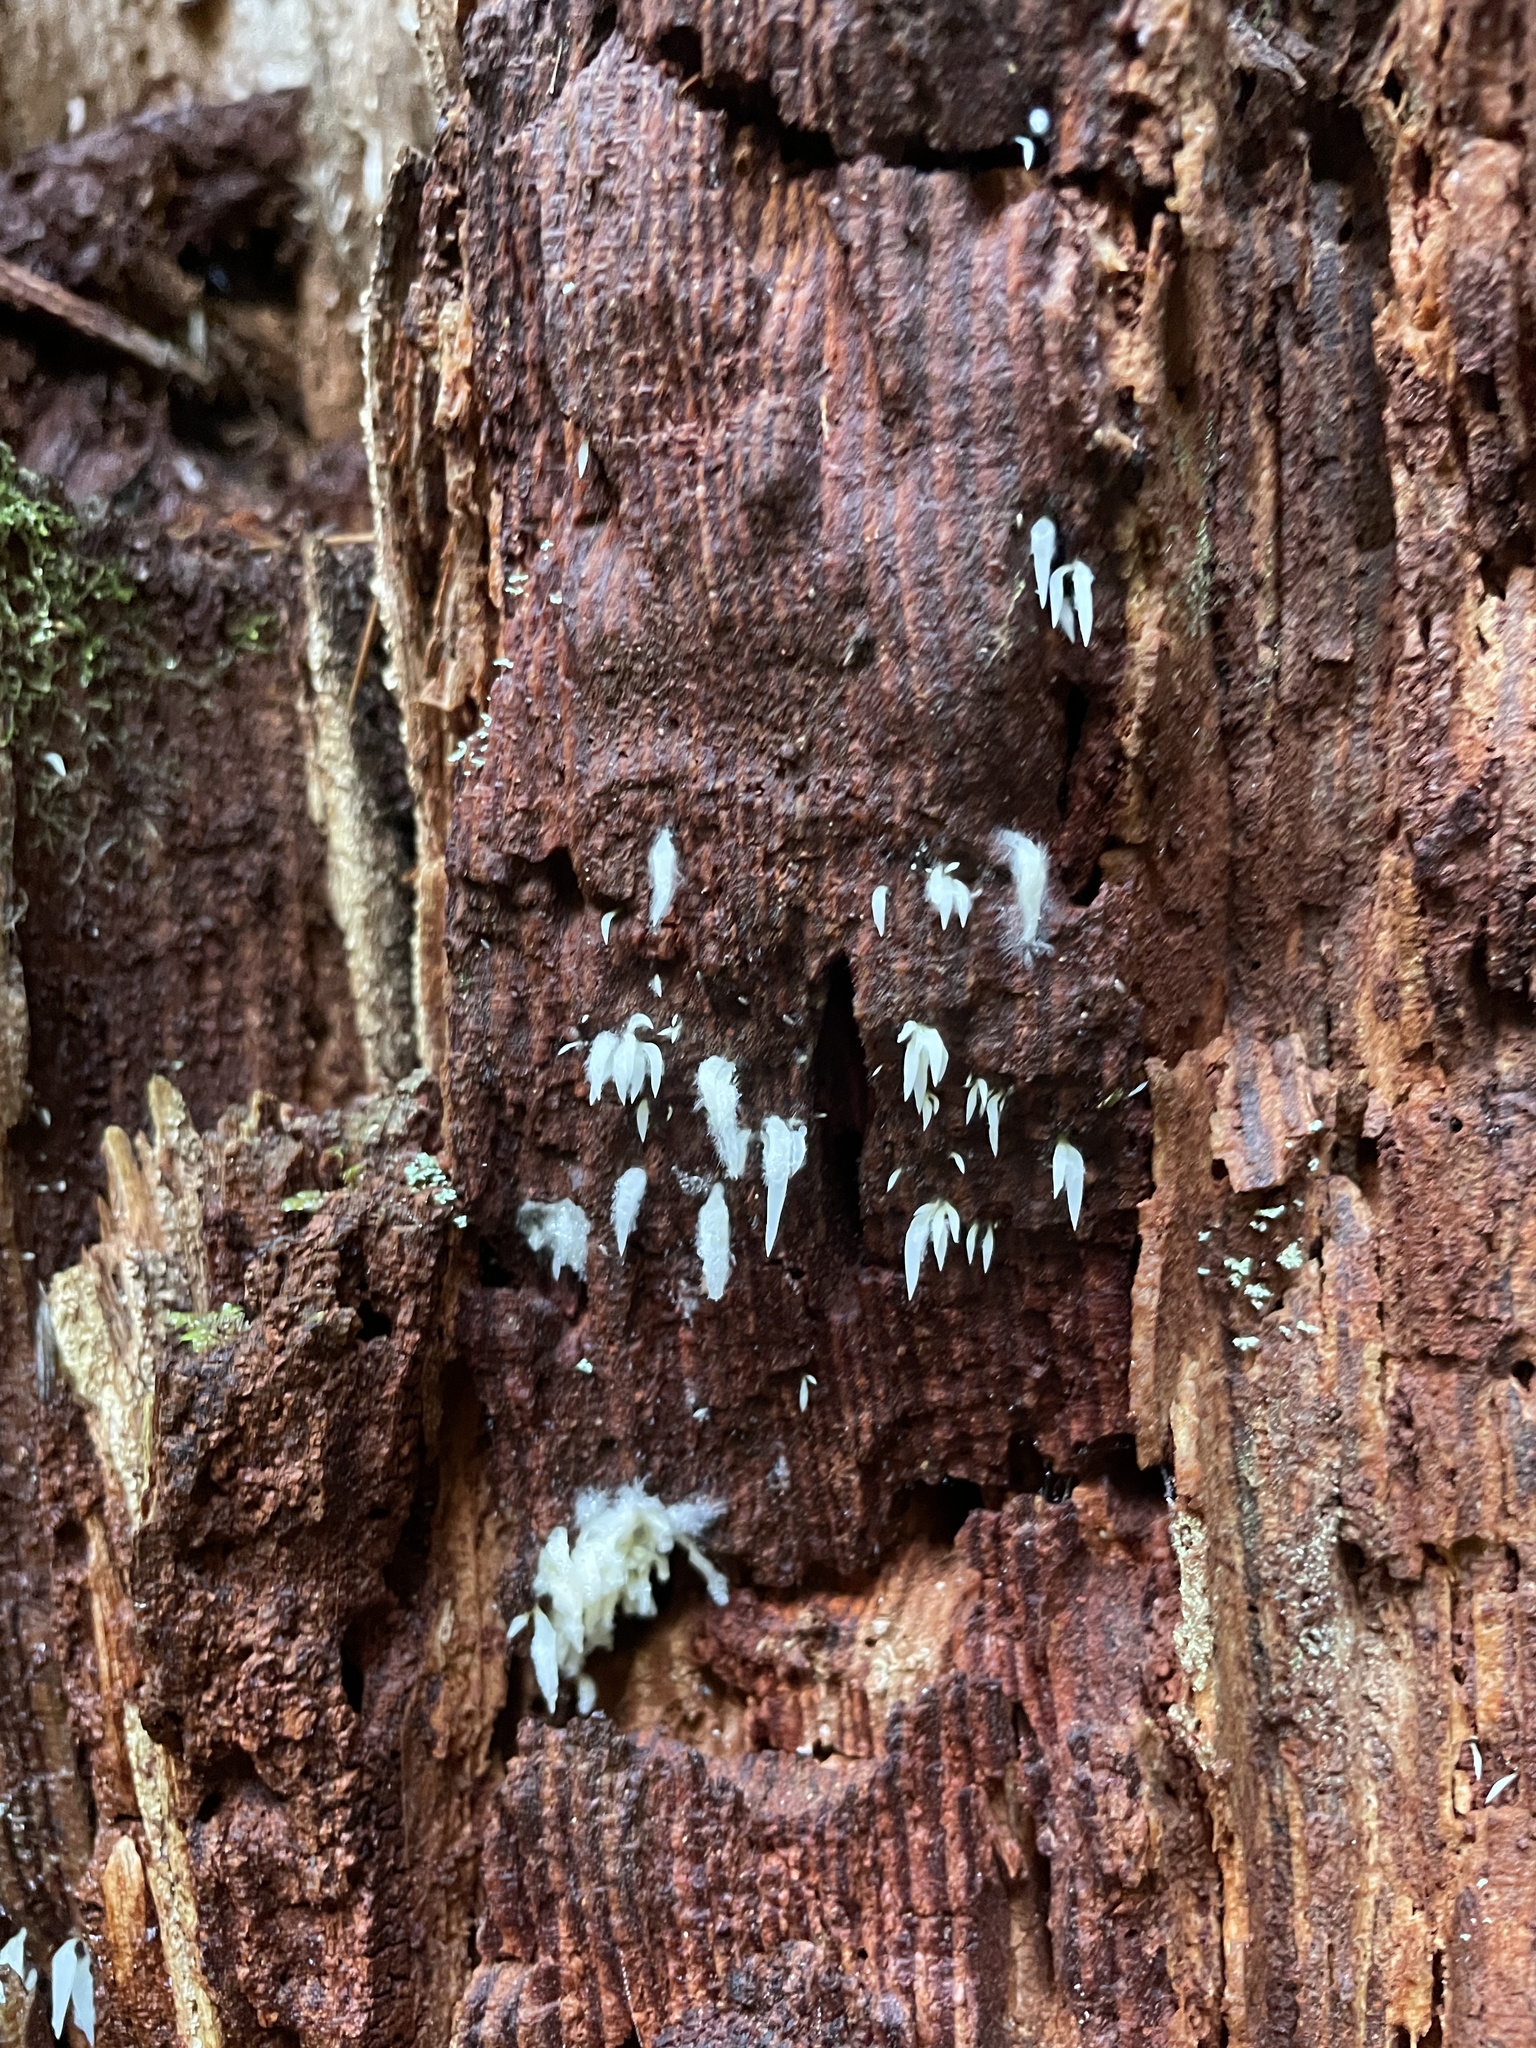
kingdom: Fungi
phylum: Basidiomycota
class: Agaricomycetes
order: Agaricales
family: Clavariaceae
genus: Mucronella
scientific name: Mucronella fusiformis
